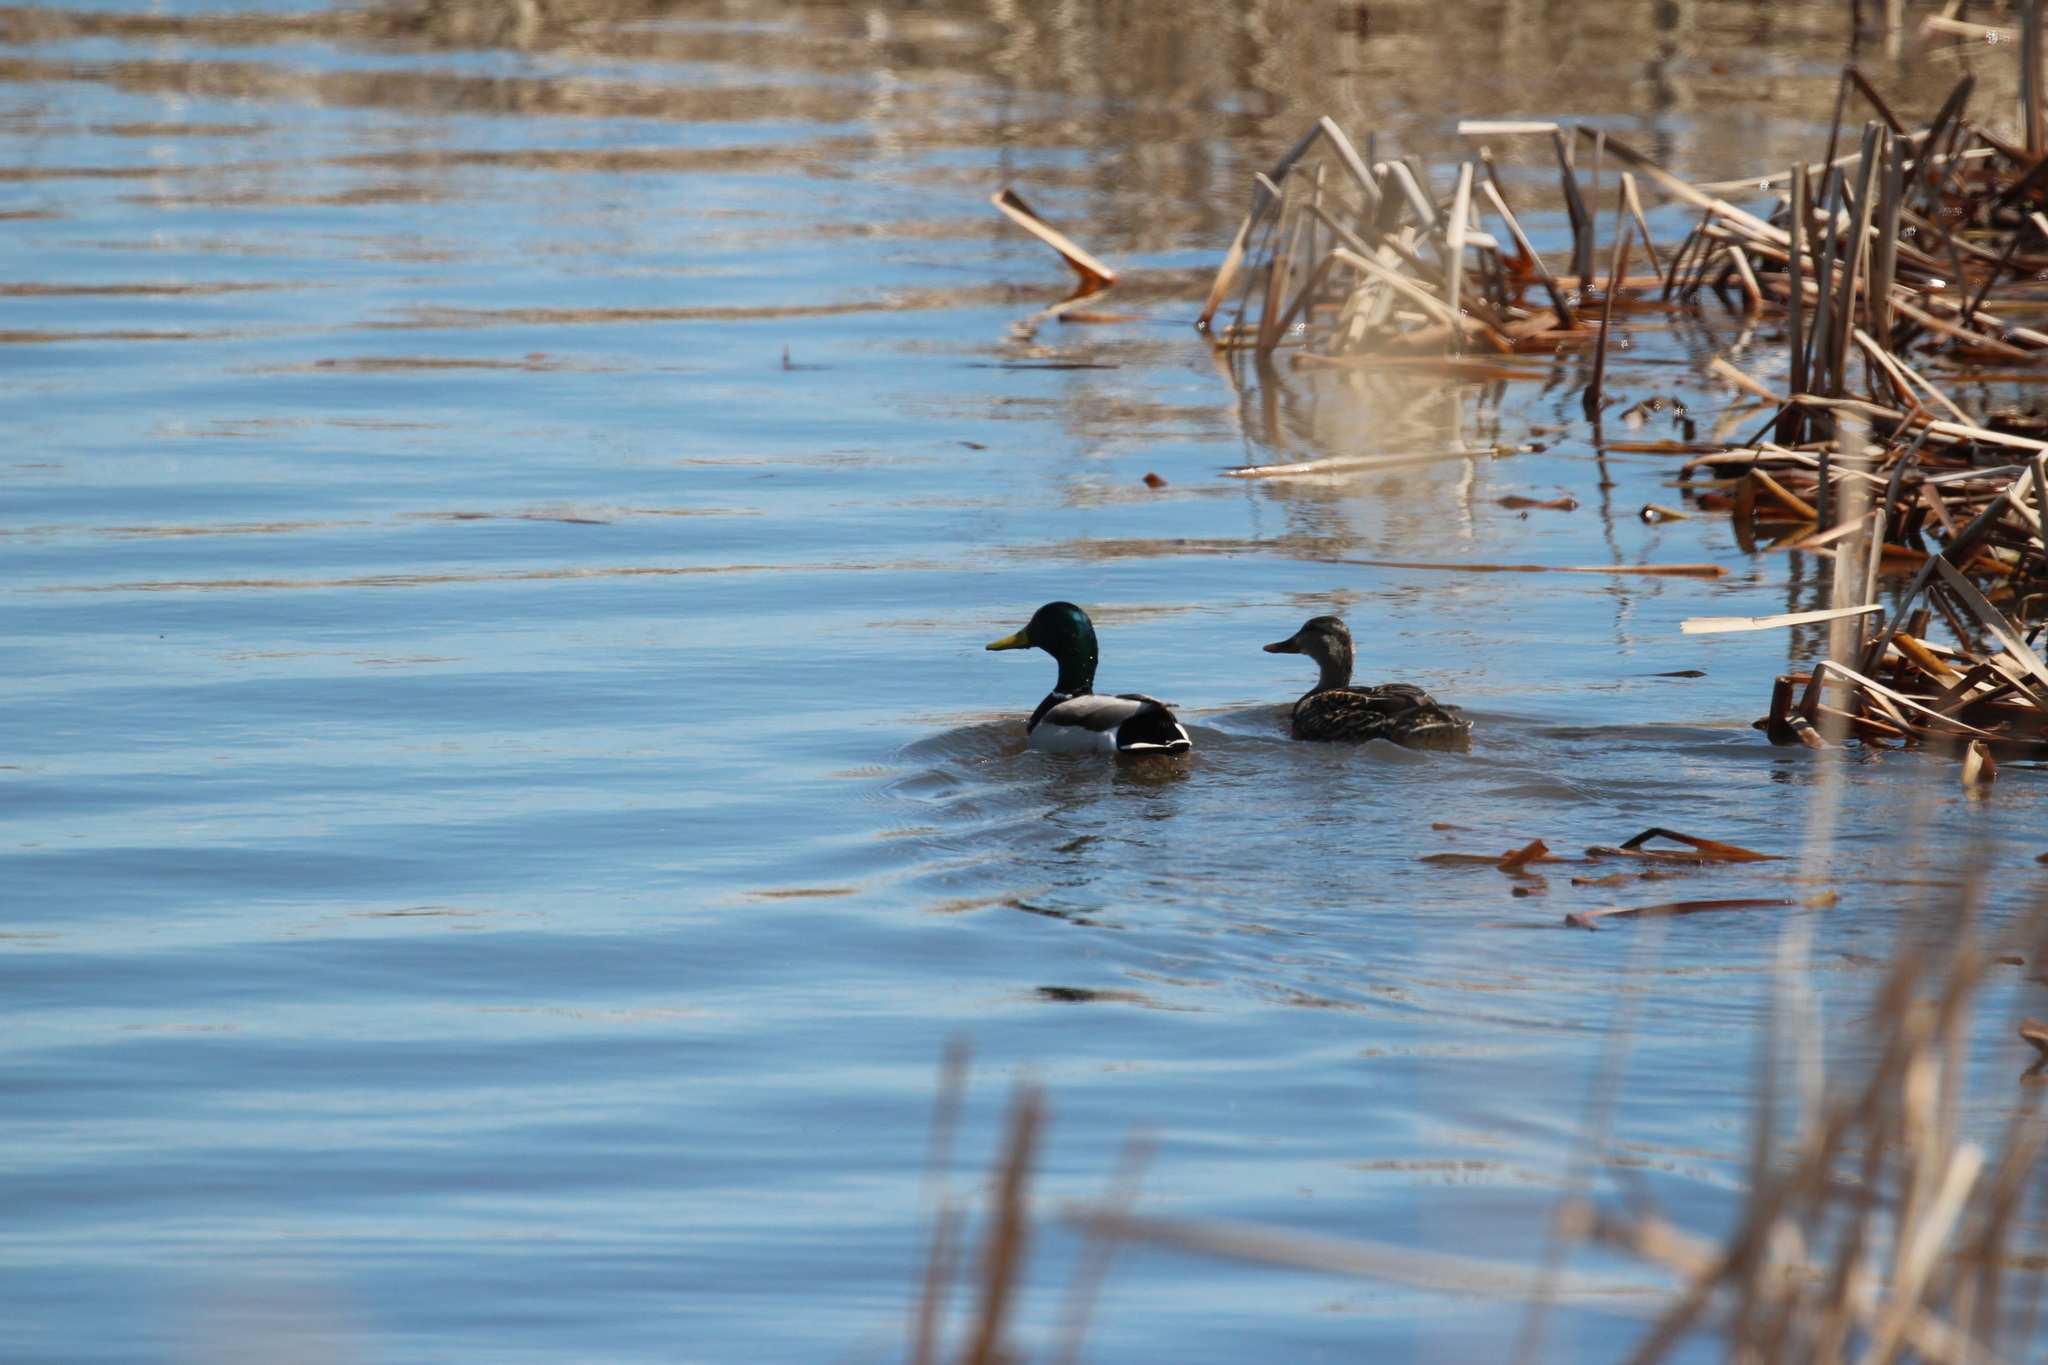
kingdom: Animalia
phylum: Chordata
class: Aves
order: Anseriformes
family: Anatidae
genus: Anas
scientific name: Anas platyrhynchos
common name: Mallard
